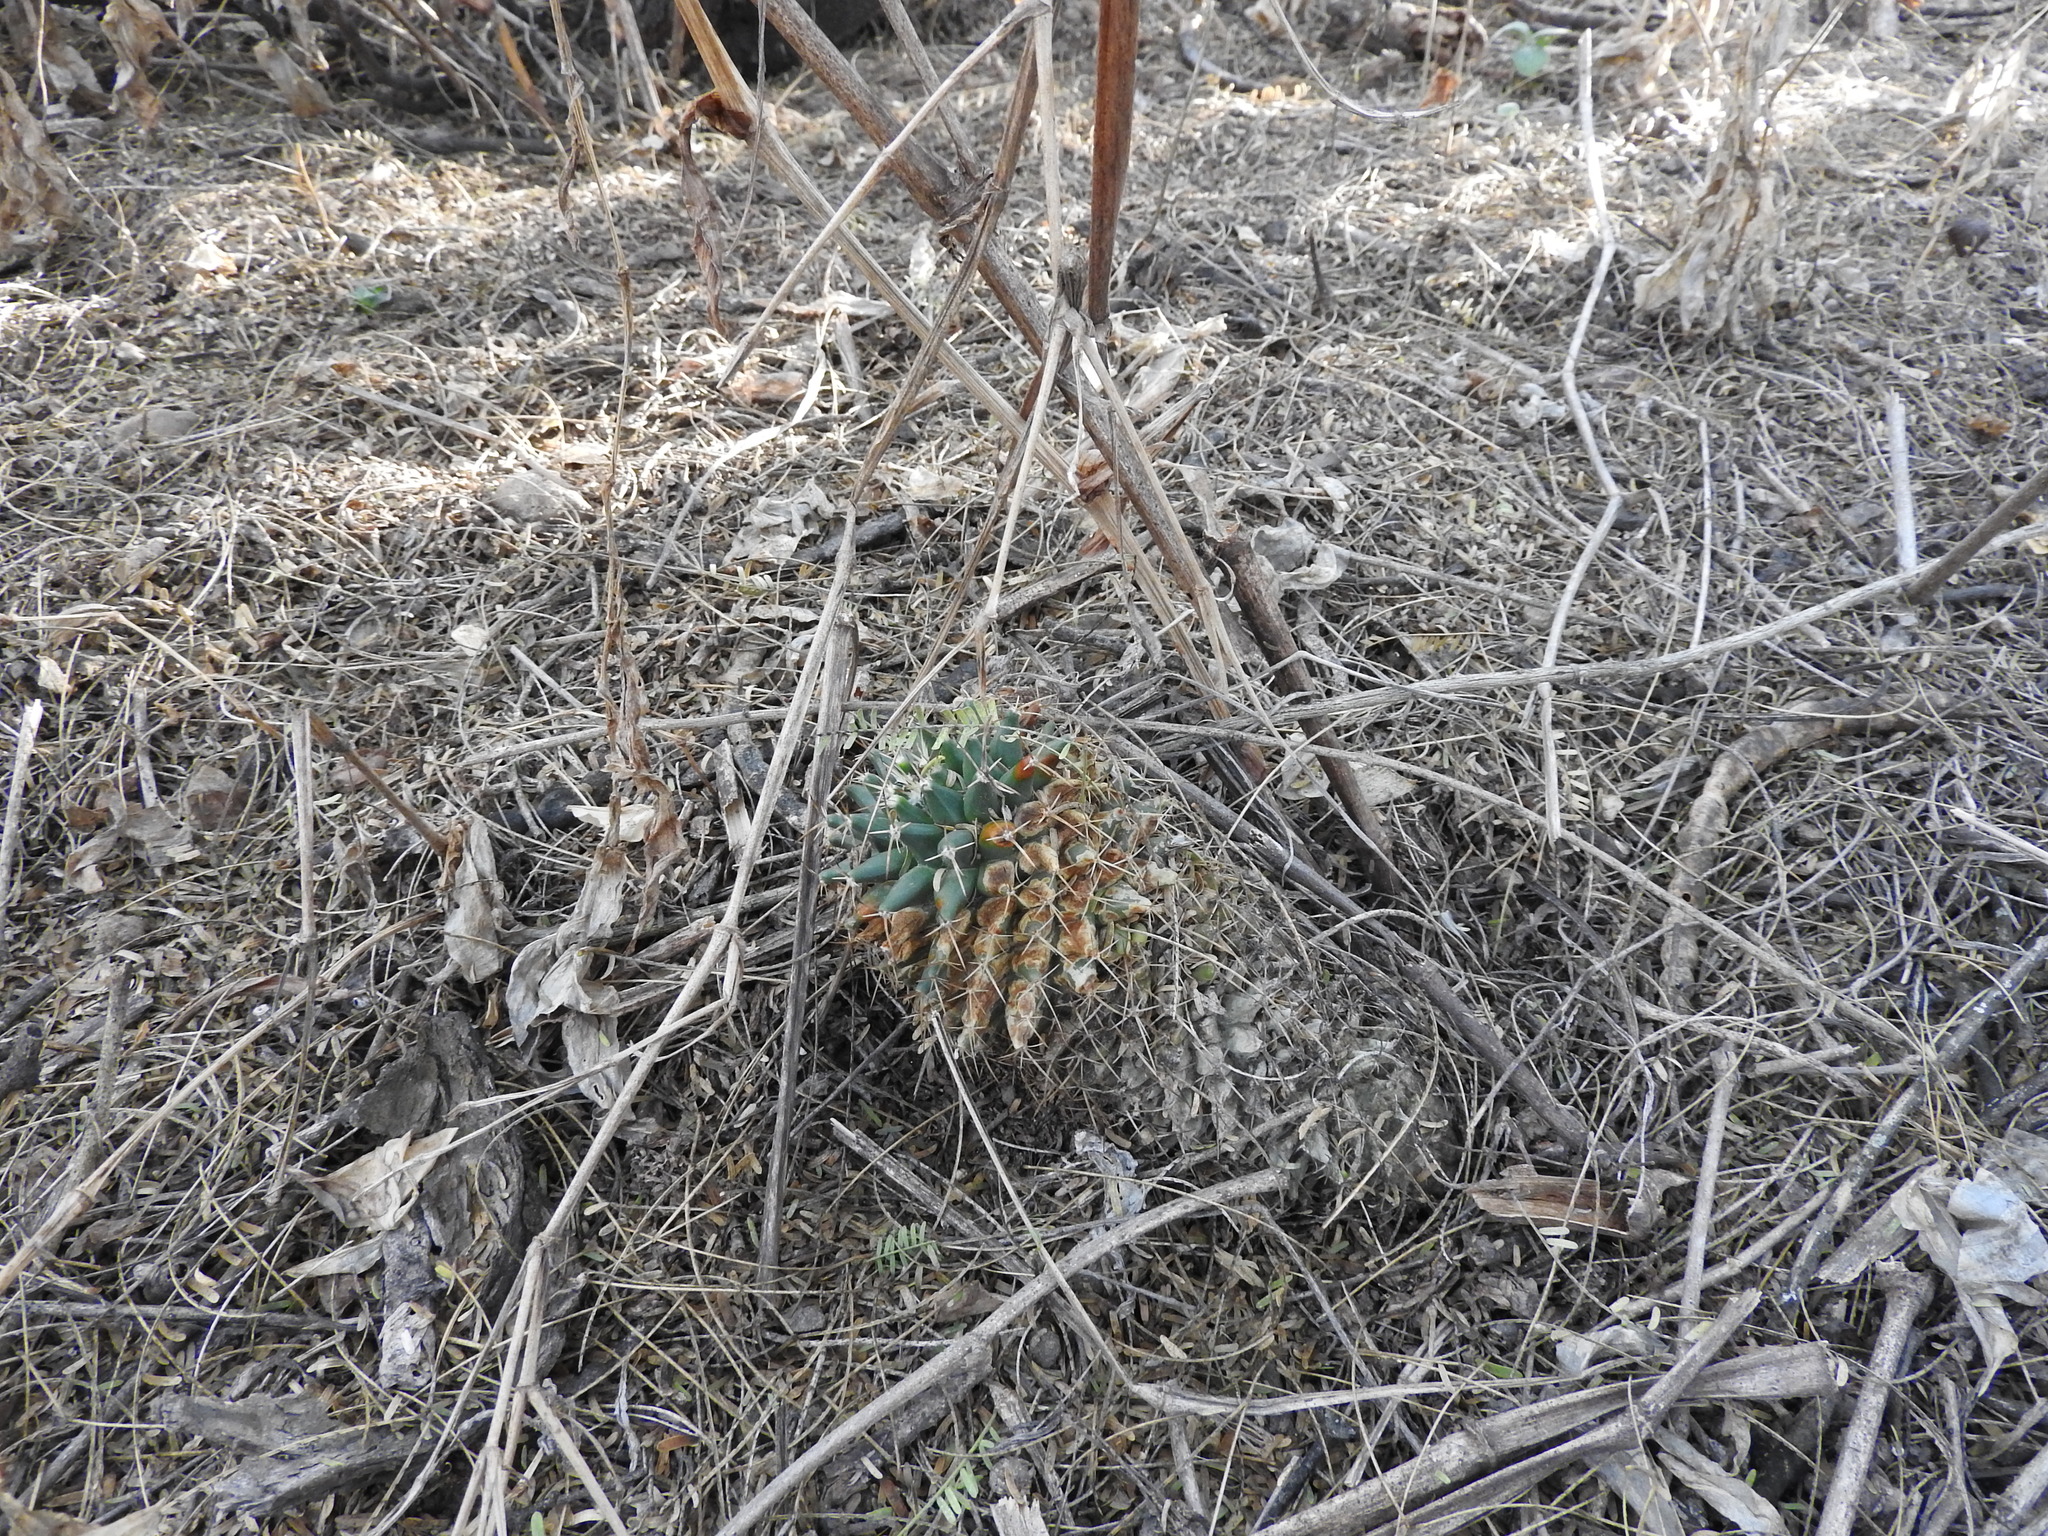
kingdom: Plantae
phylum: Tracheophyta
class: Magnoliopsida
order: Caryophyllales
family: Cactaceae
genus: Mammillaria
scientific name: Mammillaria magnimamma
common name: Mexican pincushion
